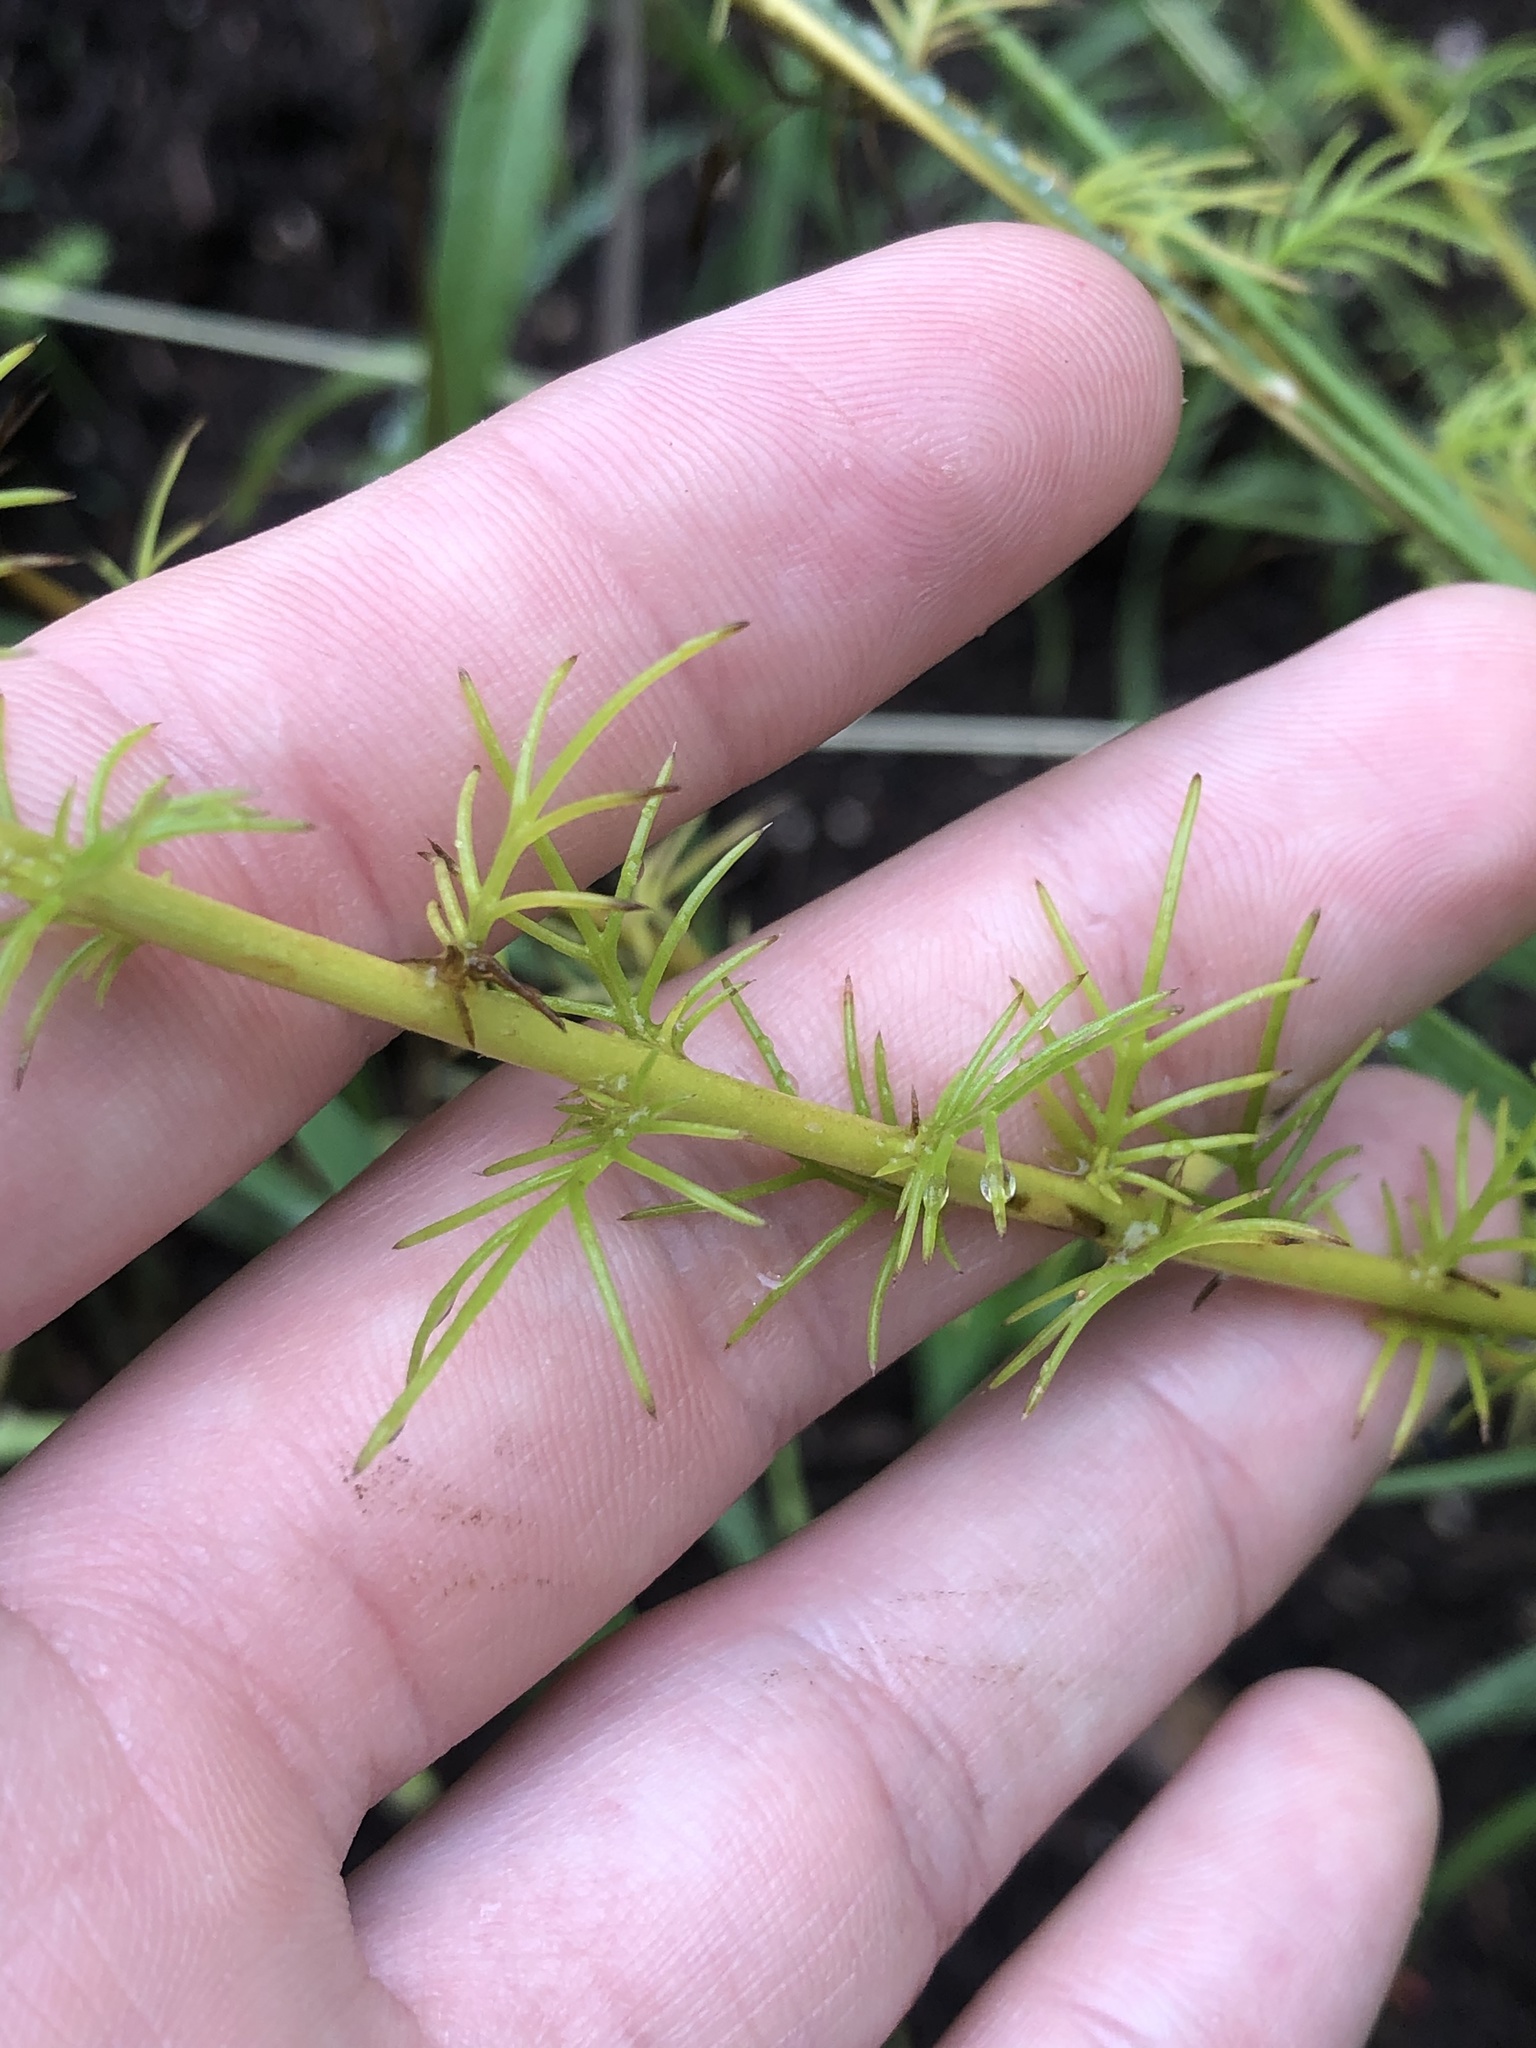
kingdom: Plantae
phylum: Tracheophyta
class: Magnoliopsida
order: Ericales
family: Polemoniaceae
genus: Ipomopsis
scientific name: Ipomopsis rubra
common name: Skyrocket
